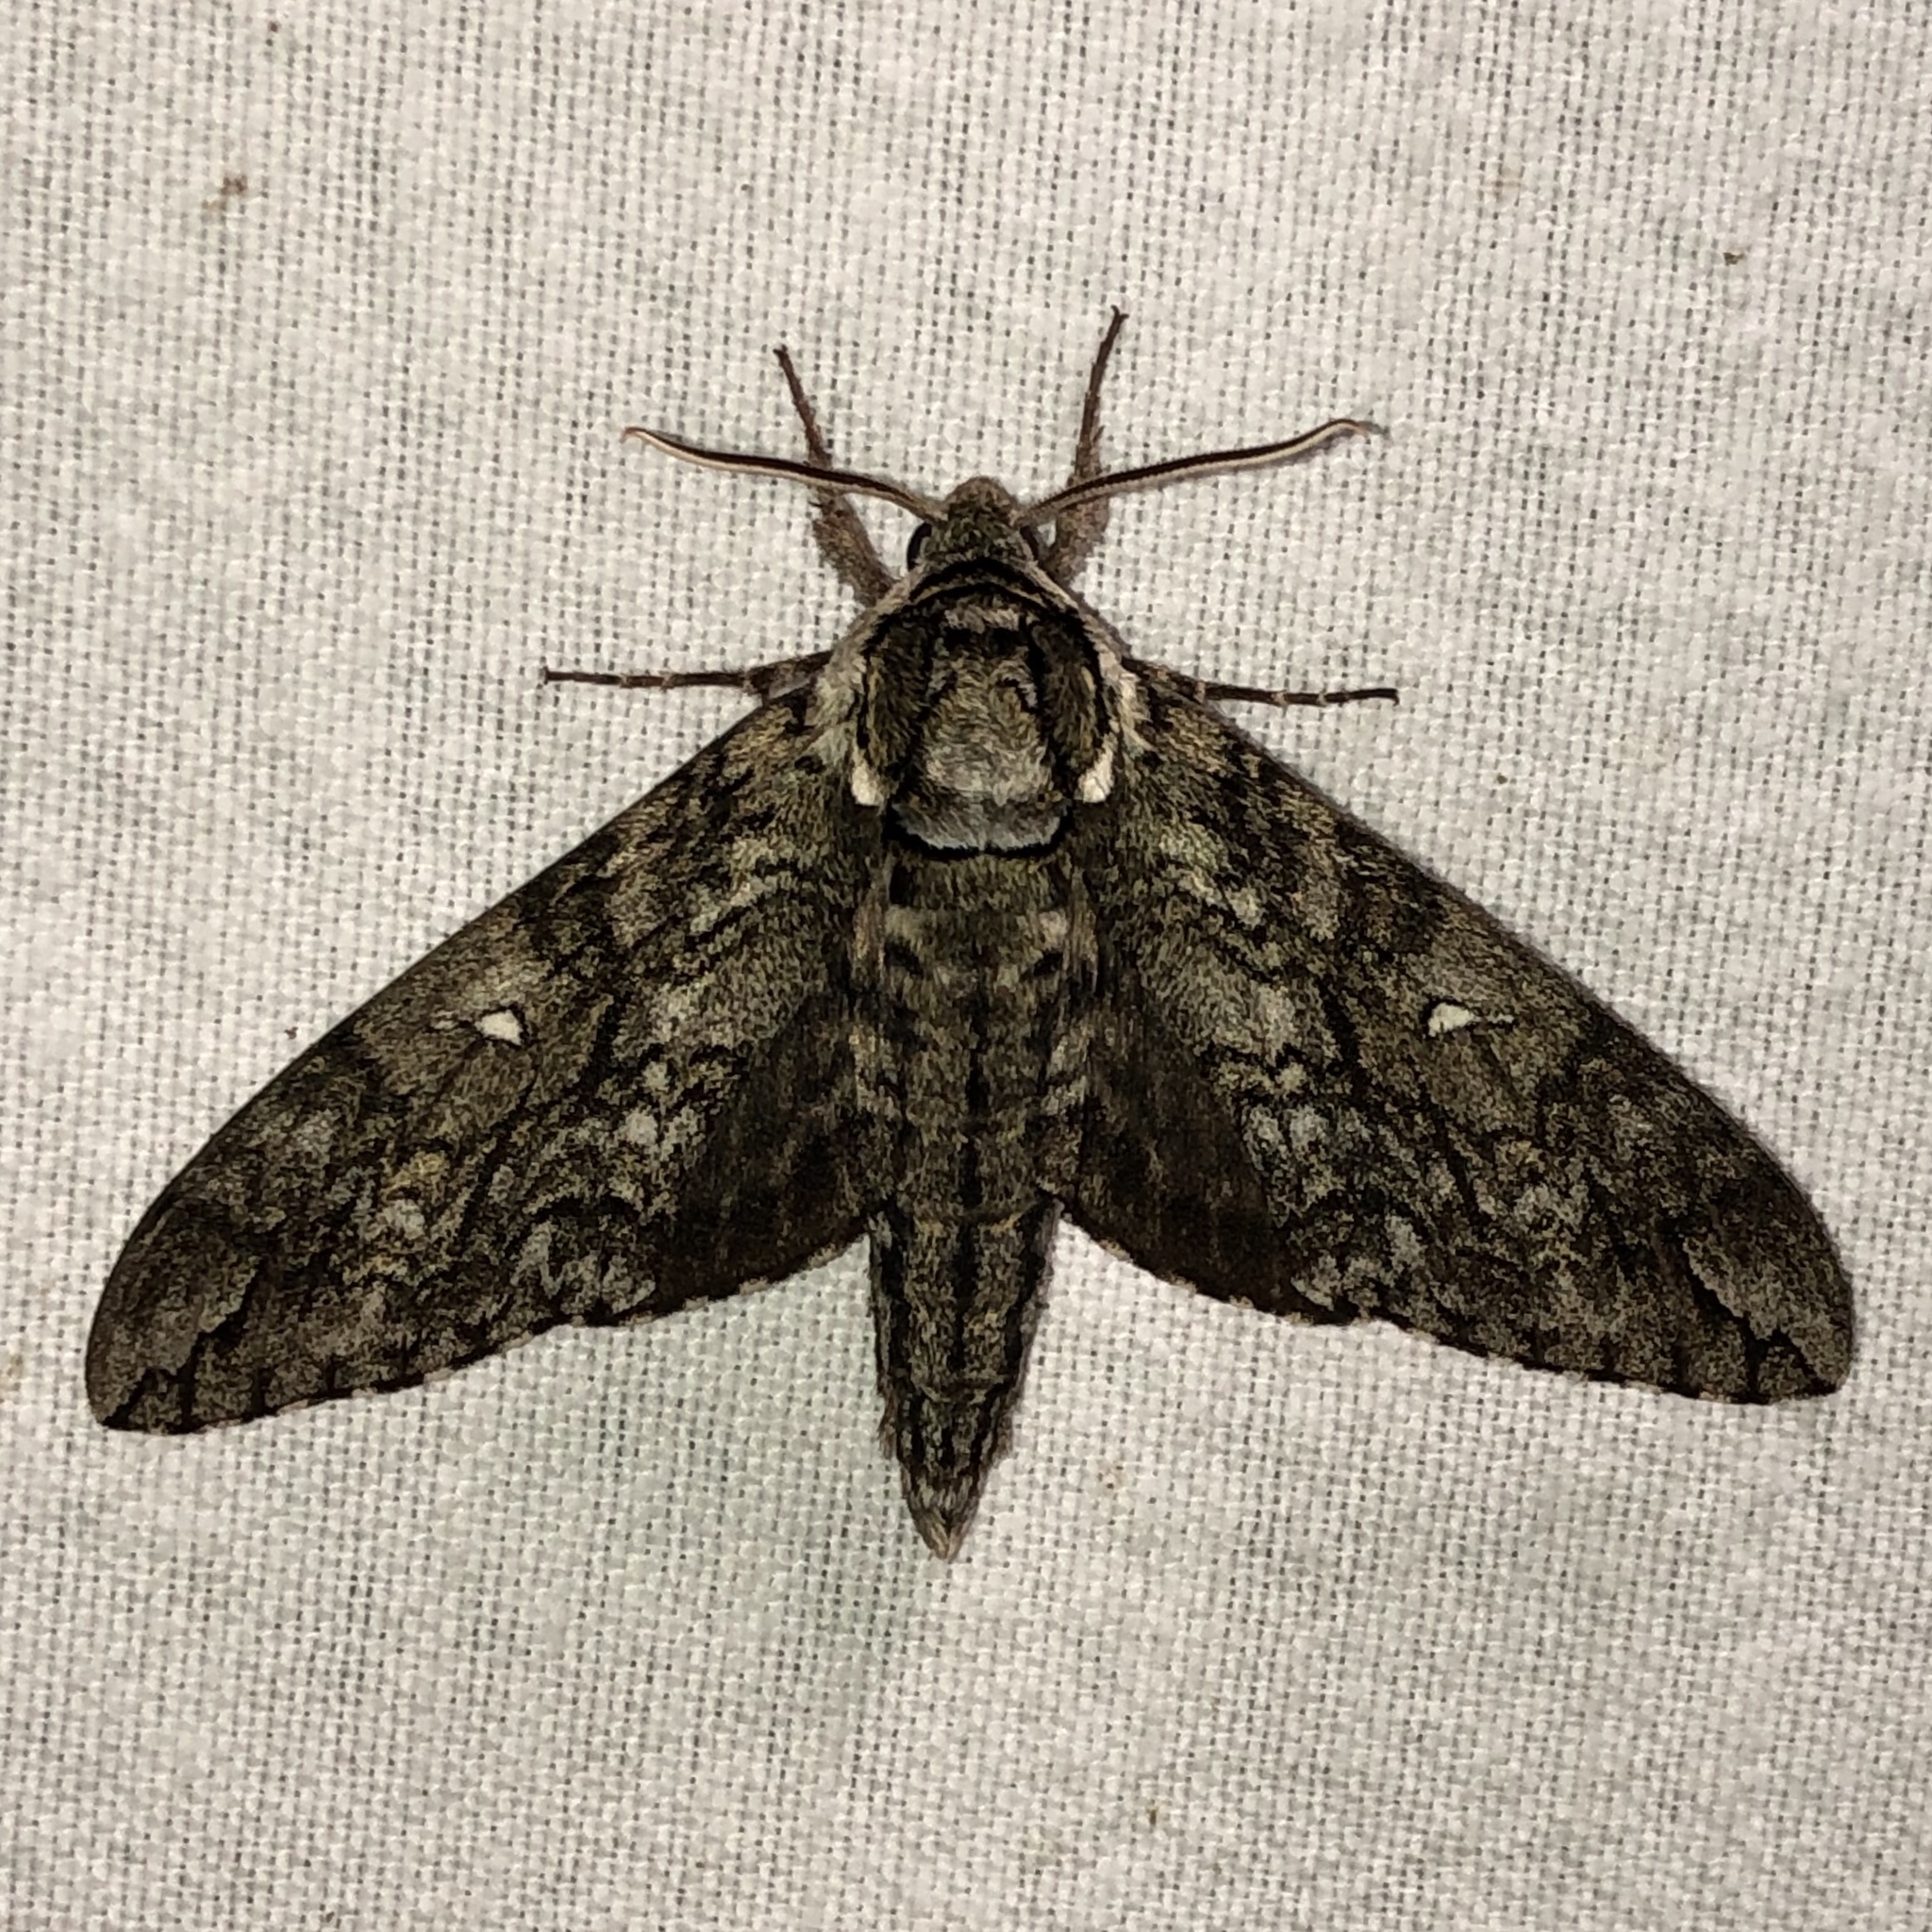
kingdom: Animalia
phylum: Arthropoda
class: Insecta
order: Lepidoptera
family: Sphingidae
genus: Ceratomia
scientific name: Ceratomia undulosa
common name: Waved sphinx
